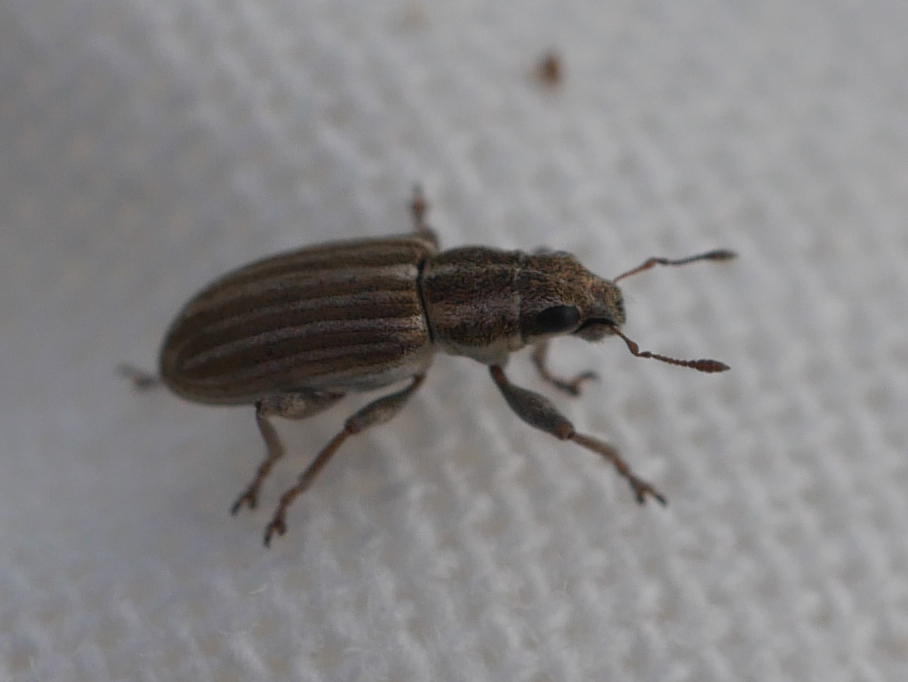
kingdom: Animalia
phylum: Arthropoda
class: Insecta
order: Coleoptera
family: Curculionidae
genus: Sitona
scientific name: Sitona lineatus
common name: Weevil
